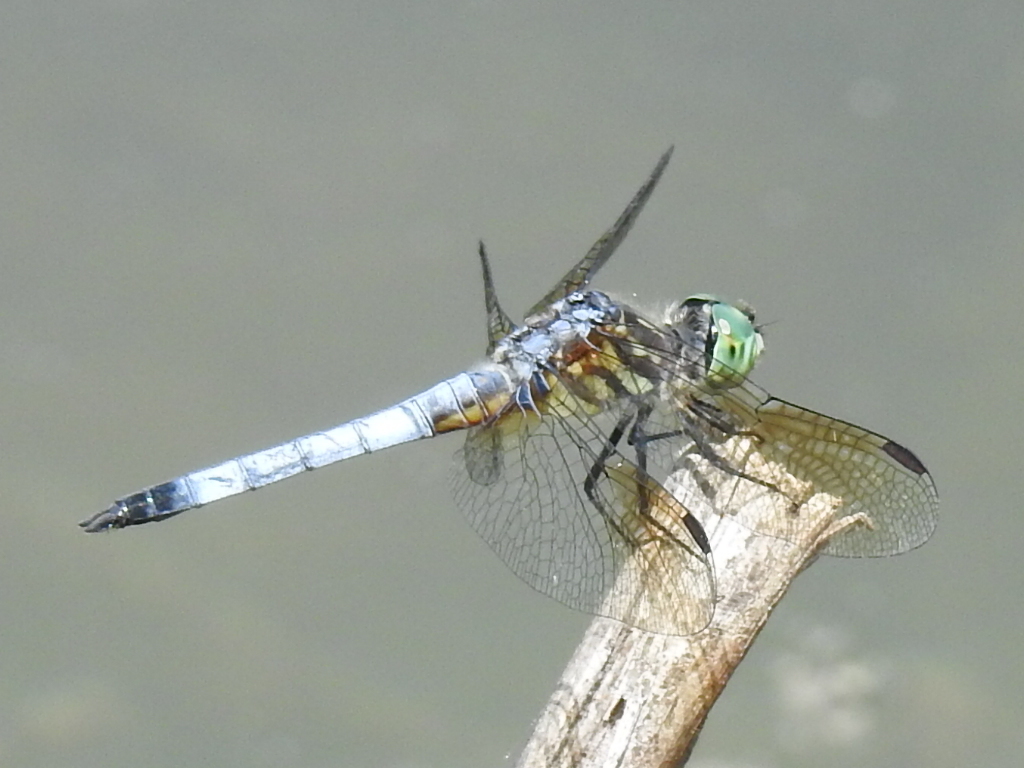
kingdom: Animalia
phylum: Arthropoda
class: Insecta
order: Odonata
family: Libellulidae
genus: Pachydiplax
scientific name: Pachydiplax longipennis
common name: Blue dasher
